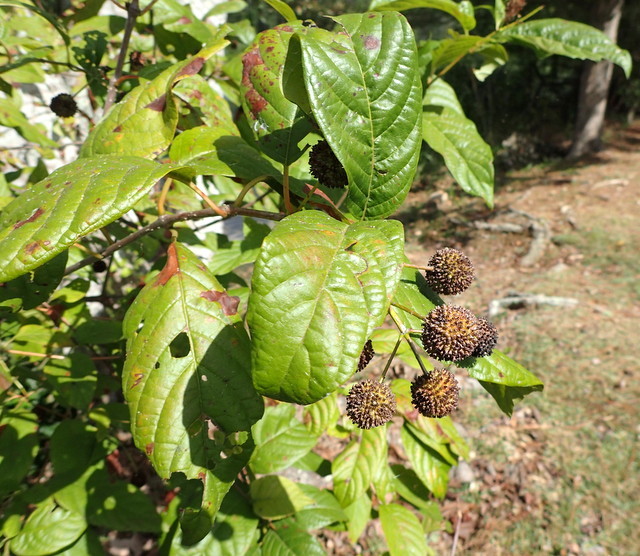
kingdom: Plantae
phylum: Tracheophyta
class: Magnoliopsida
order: Gentianales
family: Rubiaceae
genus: Cephalanthus
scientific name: Cephalanthus occidentalis
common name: Button-willow
